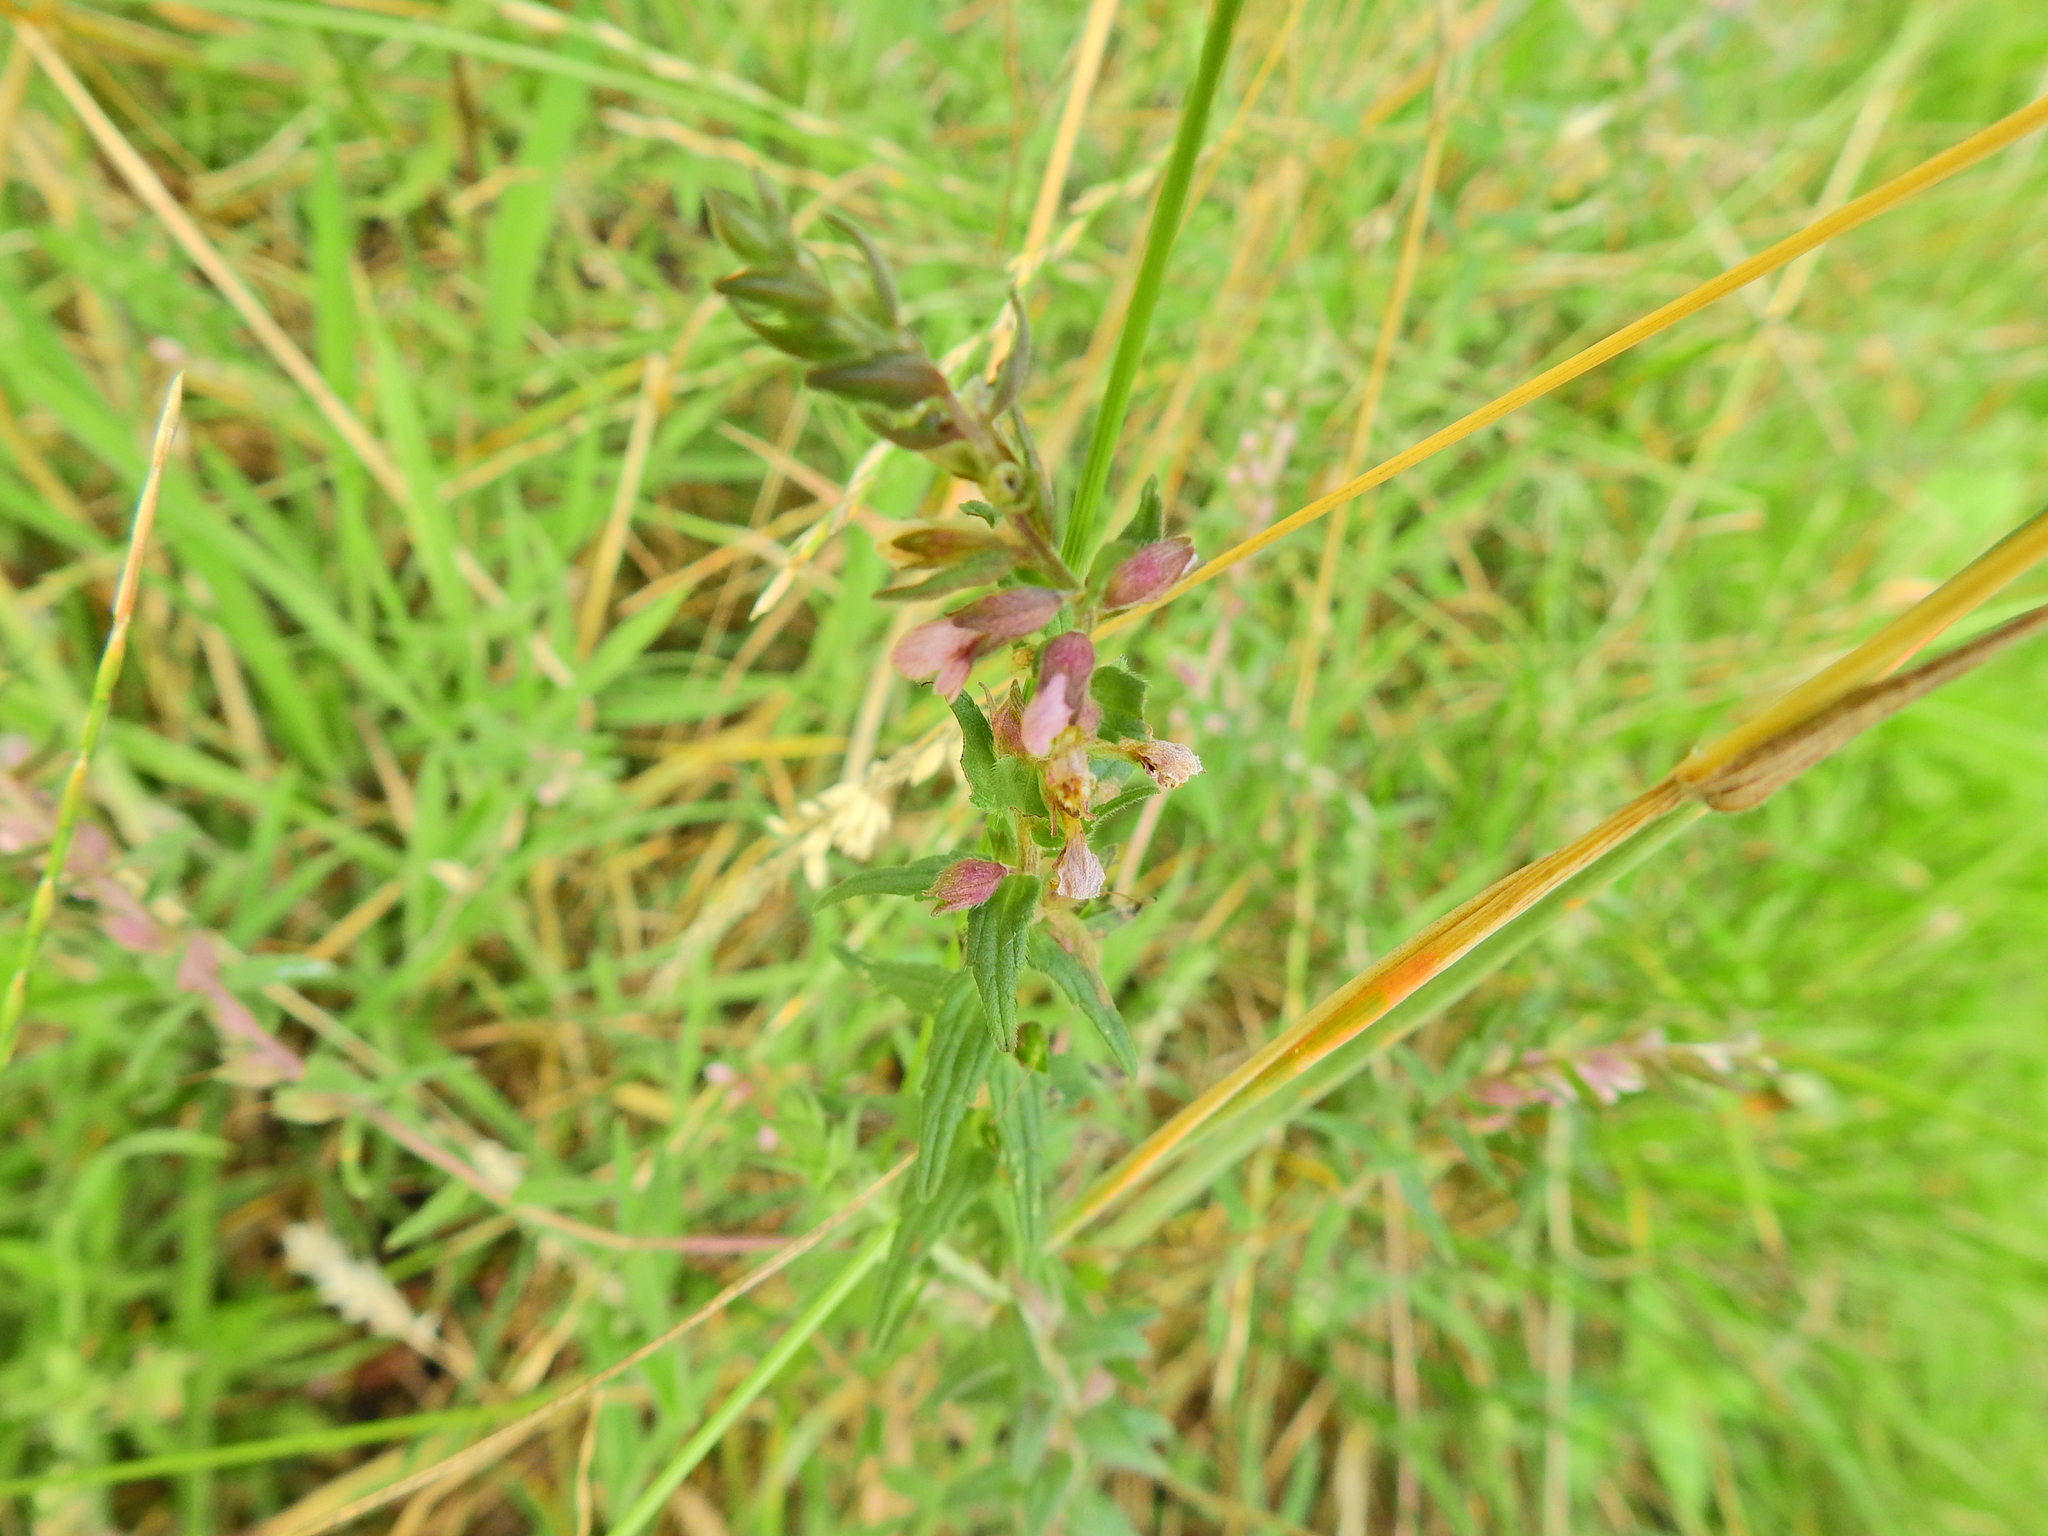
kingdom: Plantae
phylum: Tracheophyta
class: Magnoliopsida
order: Lamiales
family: Orobanchaceae
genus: Odontites
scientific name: Odontites vernus
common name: Red bartsia
